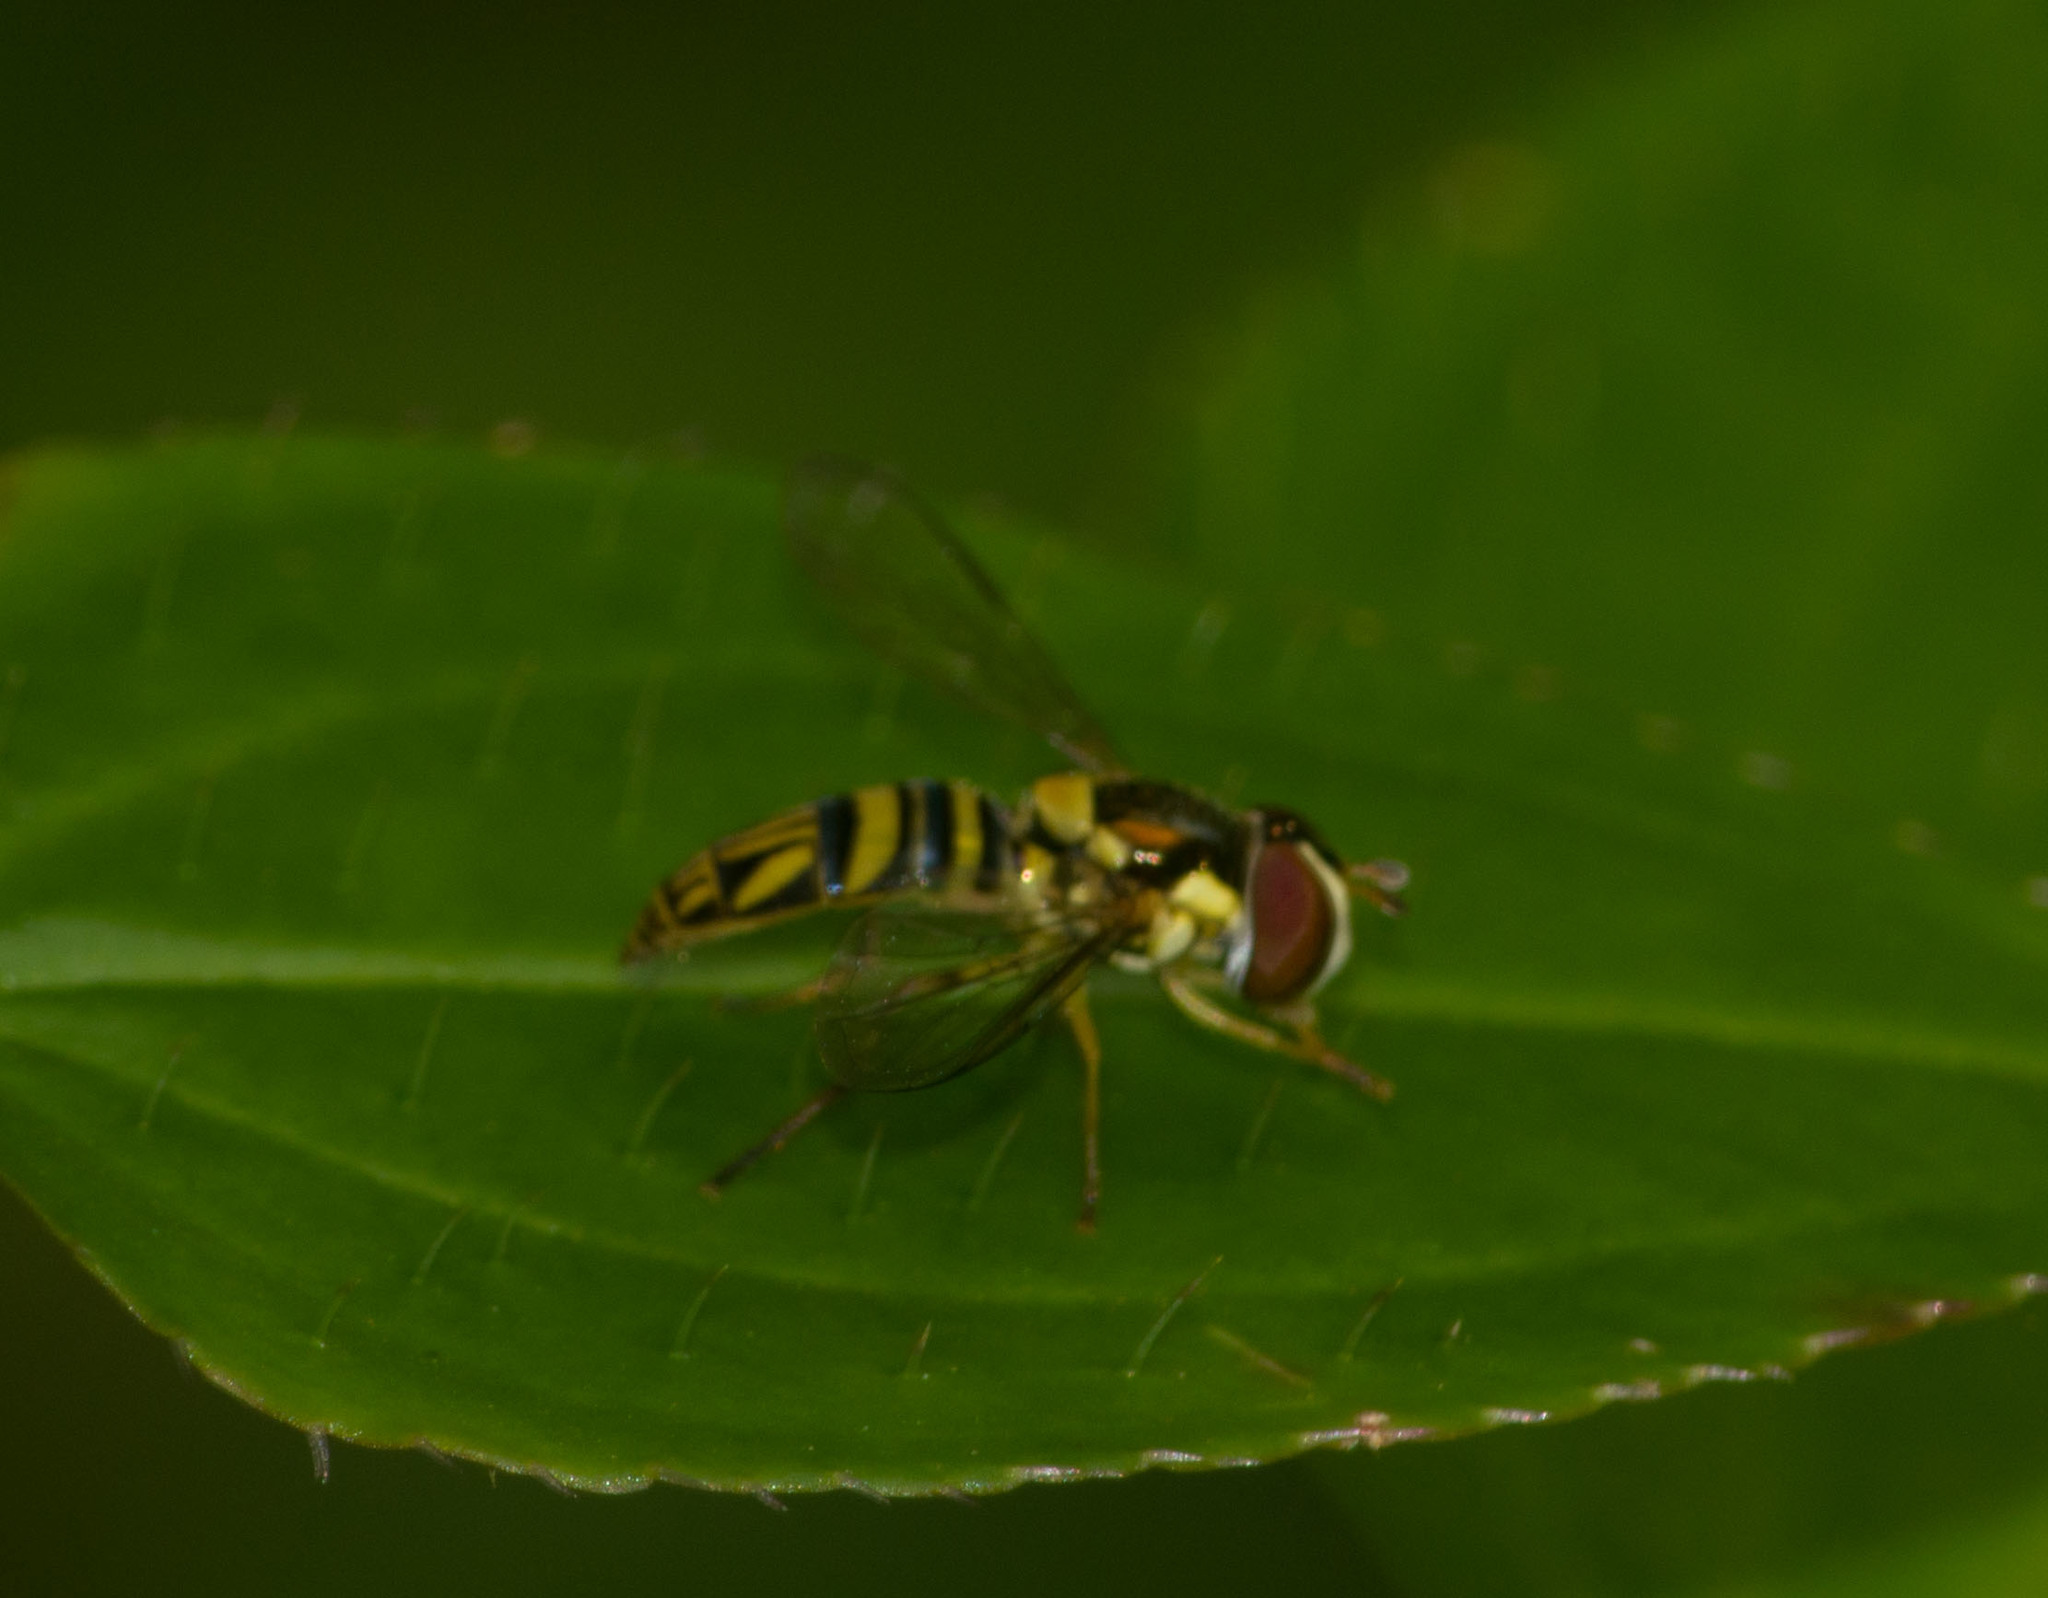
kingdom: Animalia
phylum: Arthropoda
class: Insecta
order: Diptera
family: Syrphidae
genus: Allograpta
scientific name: Allograpta obliqua
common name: Common oblique syrphid
